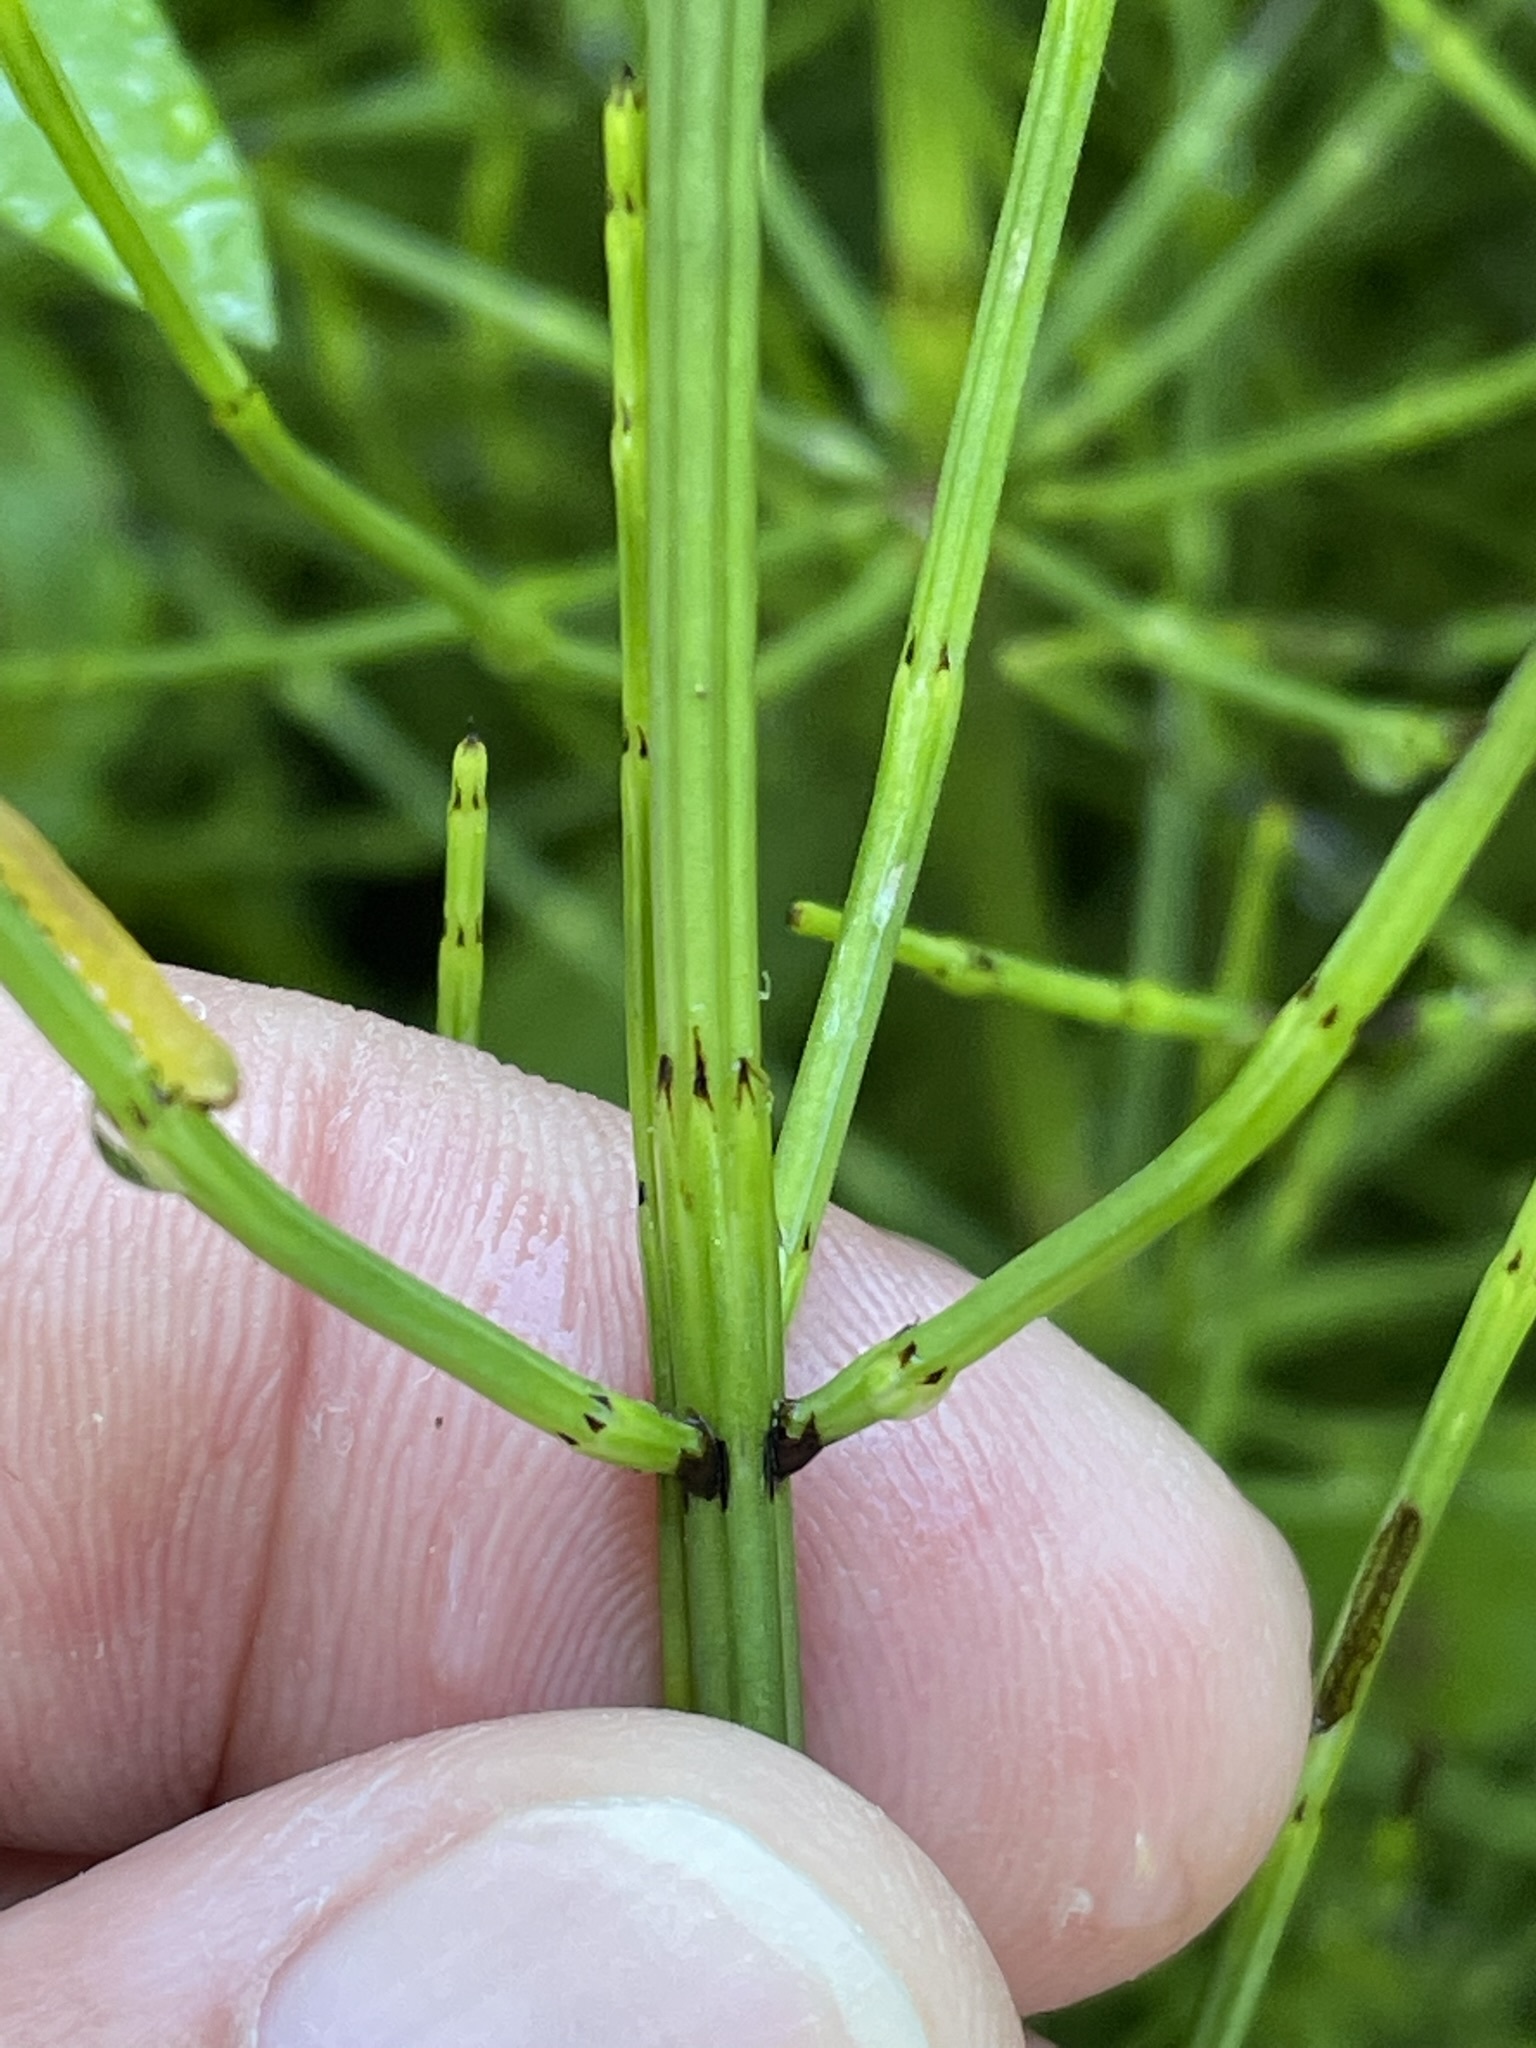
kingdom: Plantae
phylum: Tracheophyta
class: Polypodiopsida
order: Equisetales
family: Equisetaceae
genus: Equisetum
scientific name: Equisetum palustre
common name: Marsh horsetail
